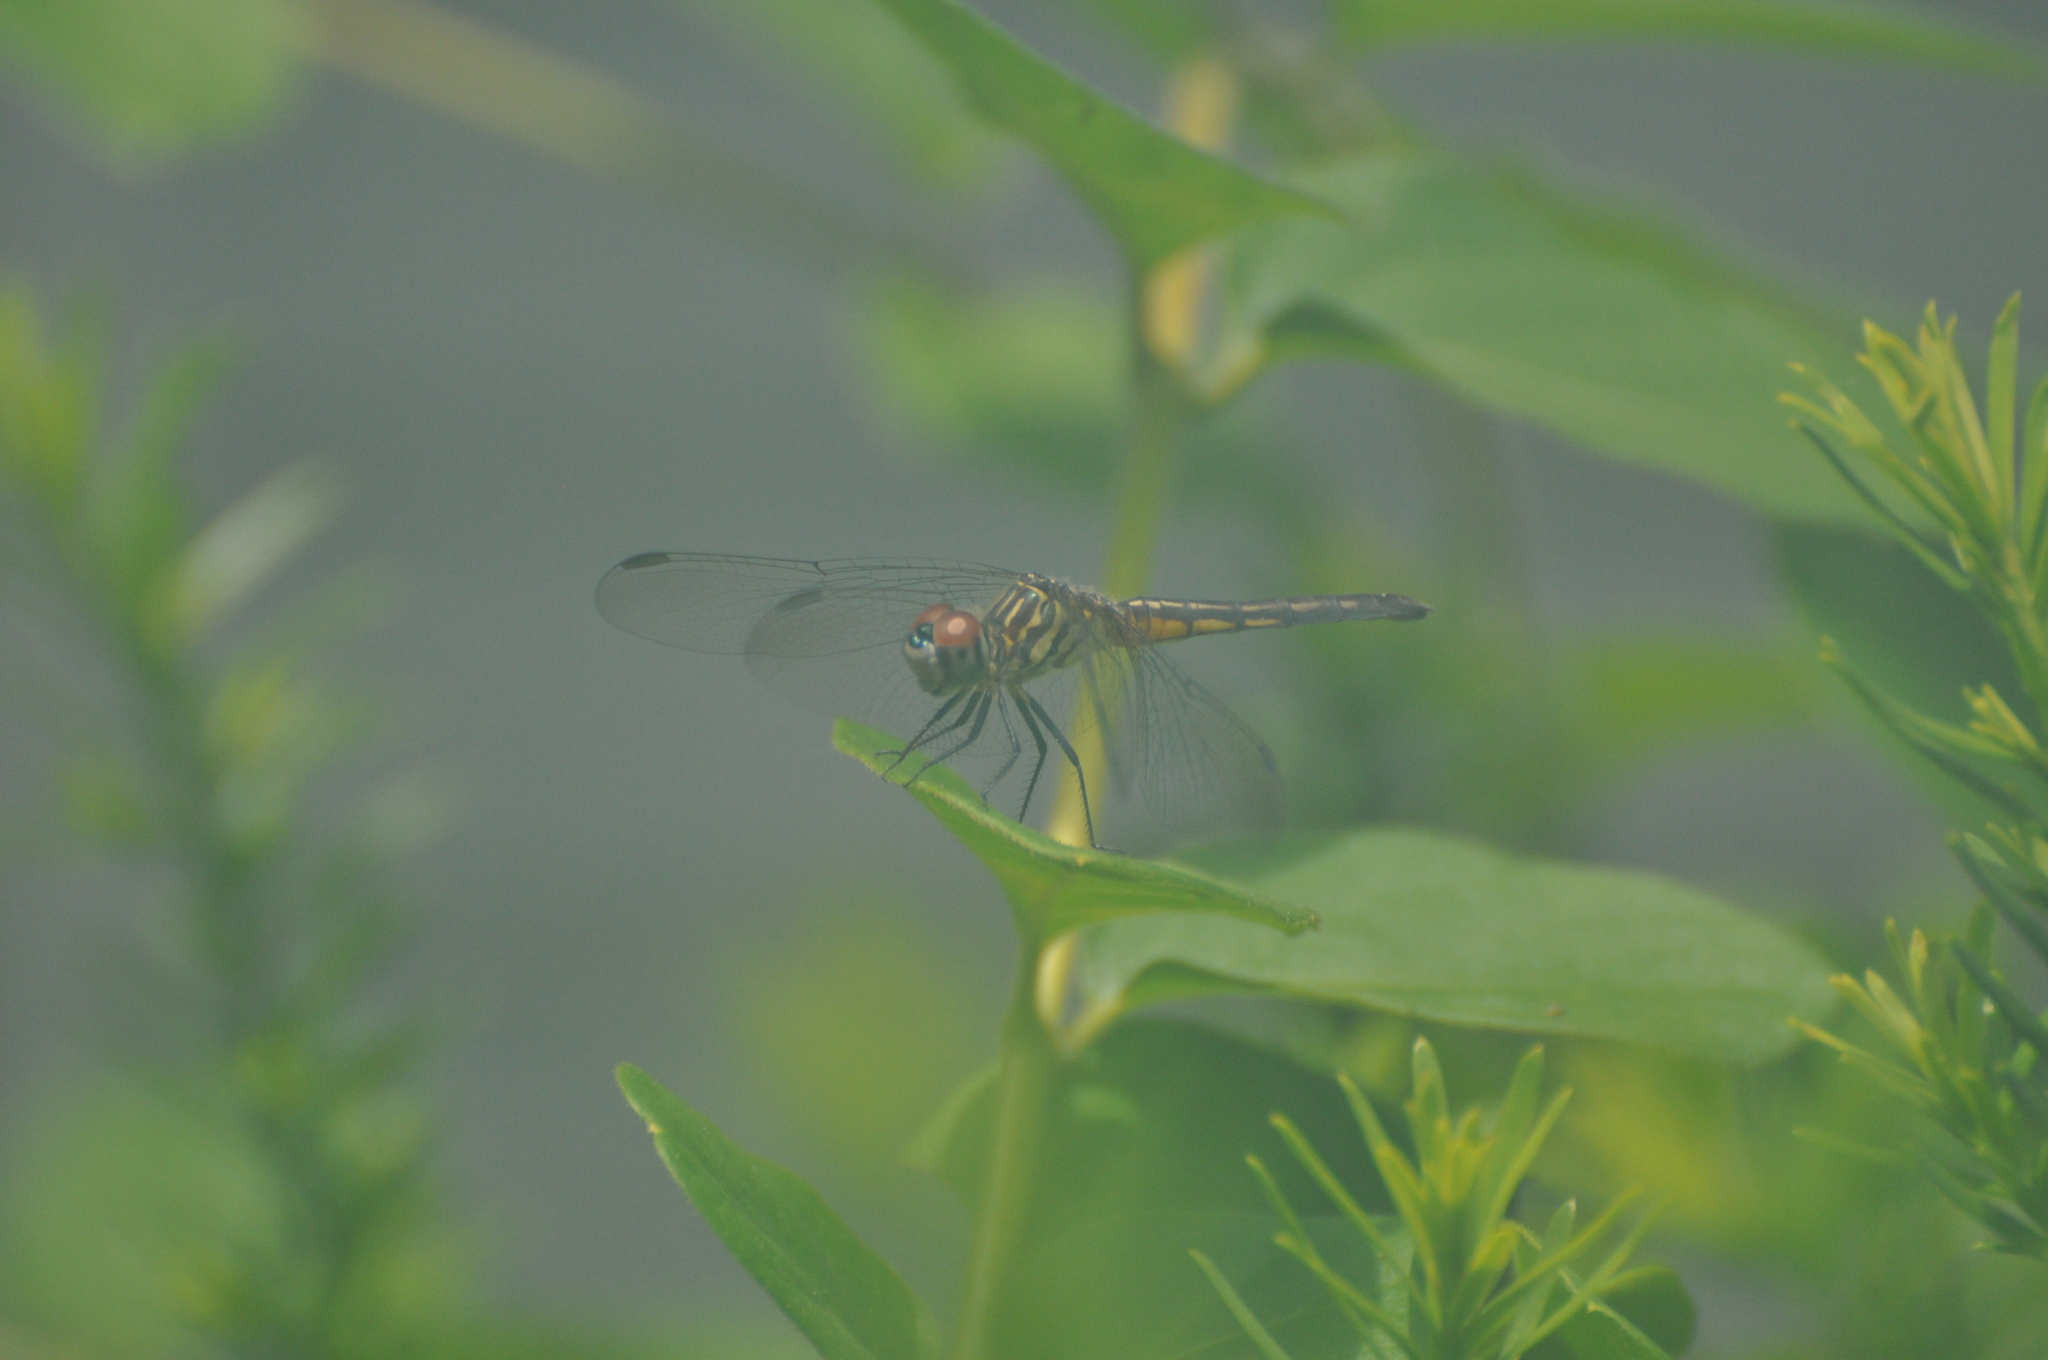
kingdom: Animalia
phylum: Arthropoda
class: Insecta
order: Odonata
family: Libellulidae
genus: Pachydiplax
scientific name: Pachydiplax longipennis
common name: Blue dasher
